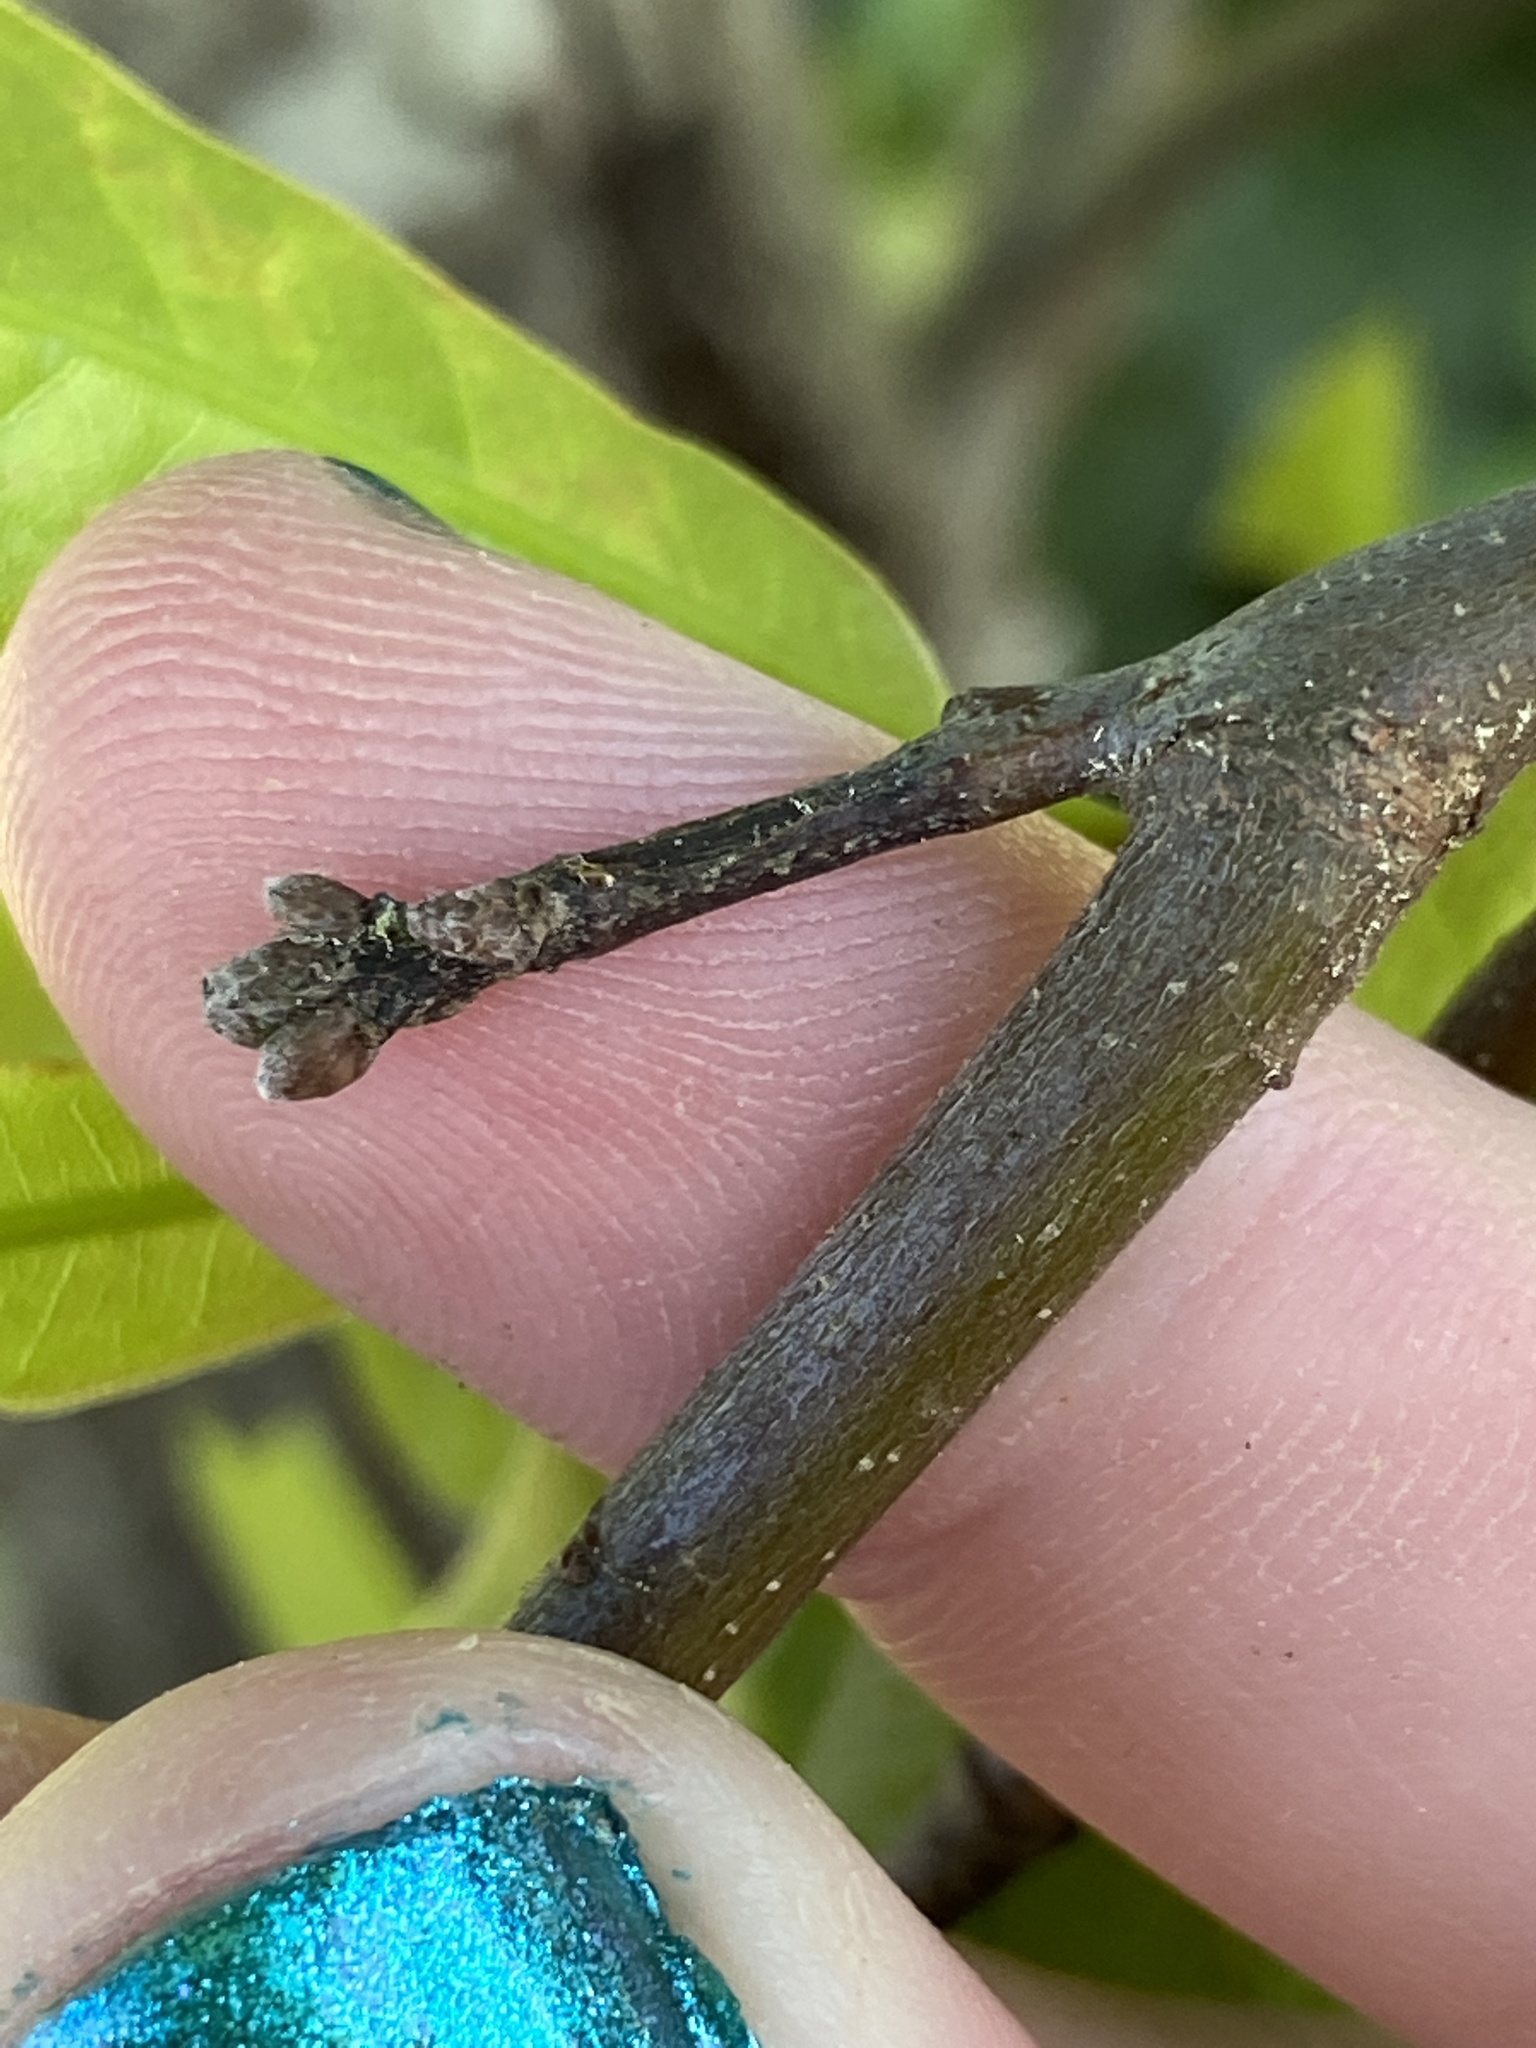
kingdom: Plantae
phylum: Tracheophyta
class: Magnoliopsida
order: Fagales
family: Fagaceae
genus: Quercus
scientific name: Quercus nigra
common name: Water oak
